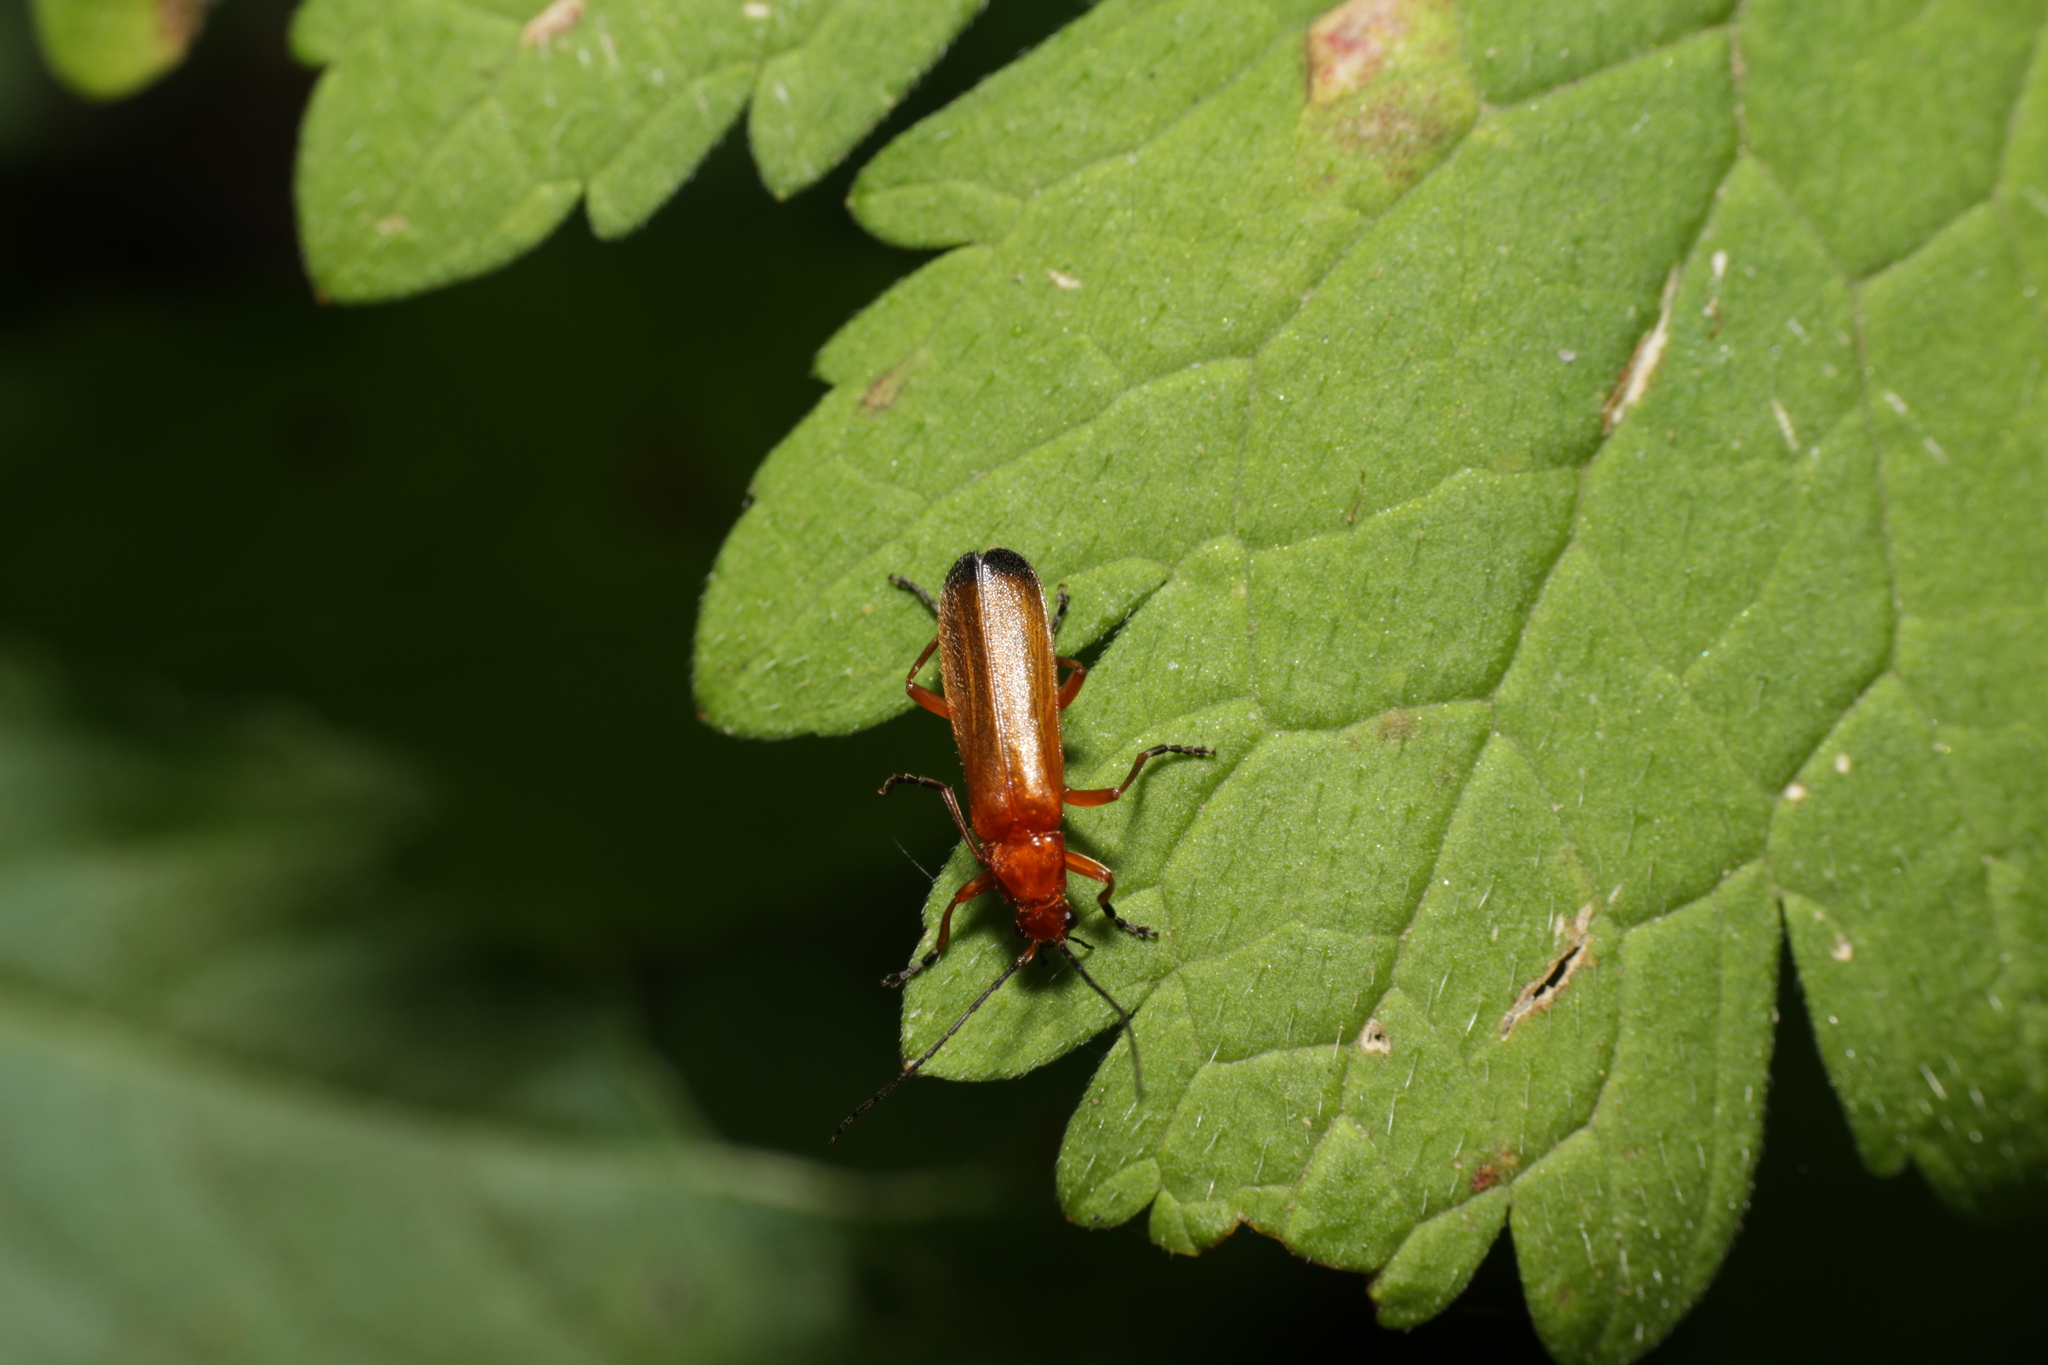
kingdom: Animalia
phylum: Arthropoda
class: Insecta
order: Coleoptera
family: Cantharidae
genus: Rhagonycha
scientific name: Rhagonycha fulva
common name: Common red soldier beetle
